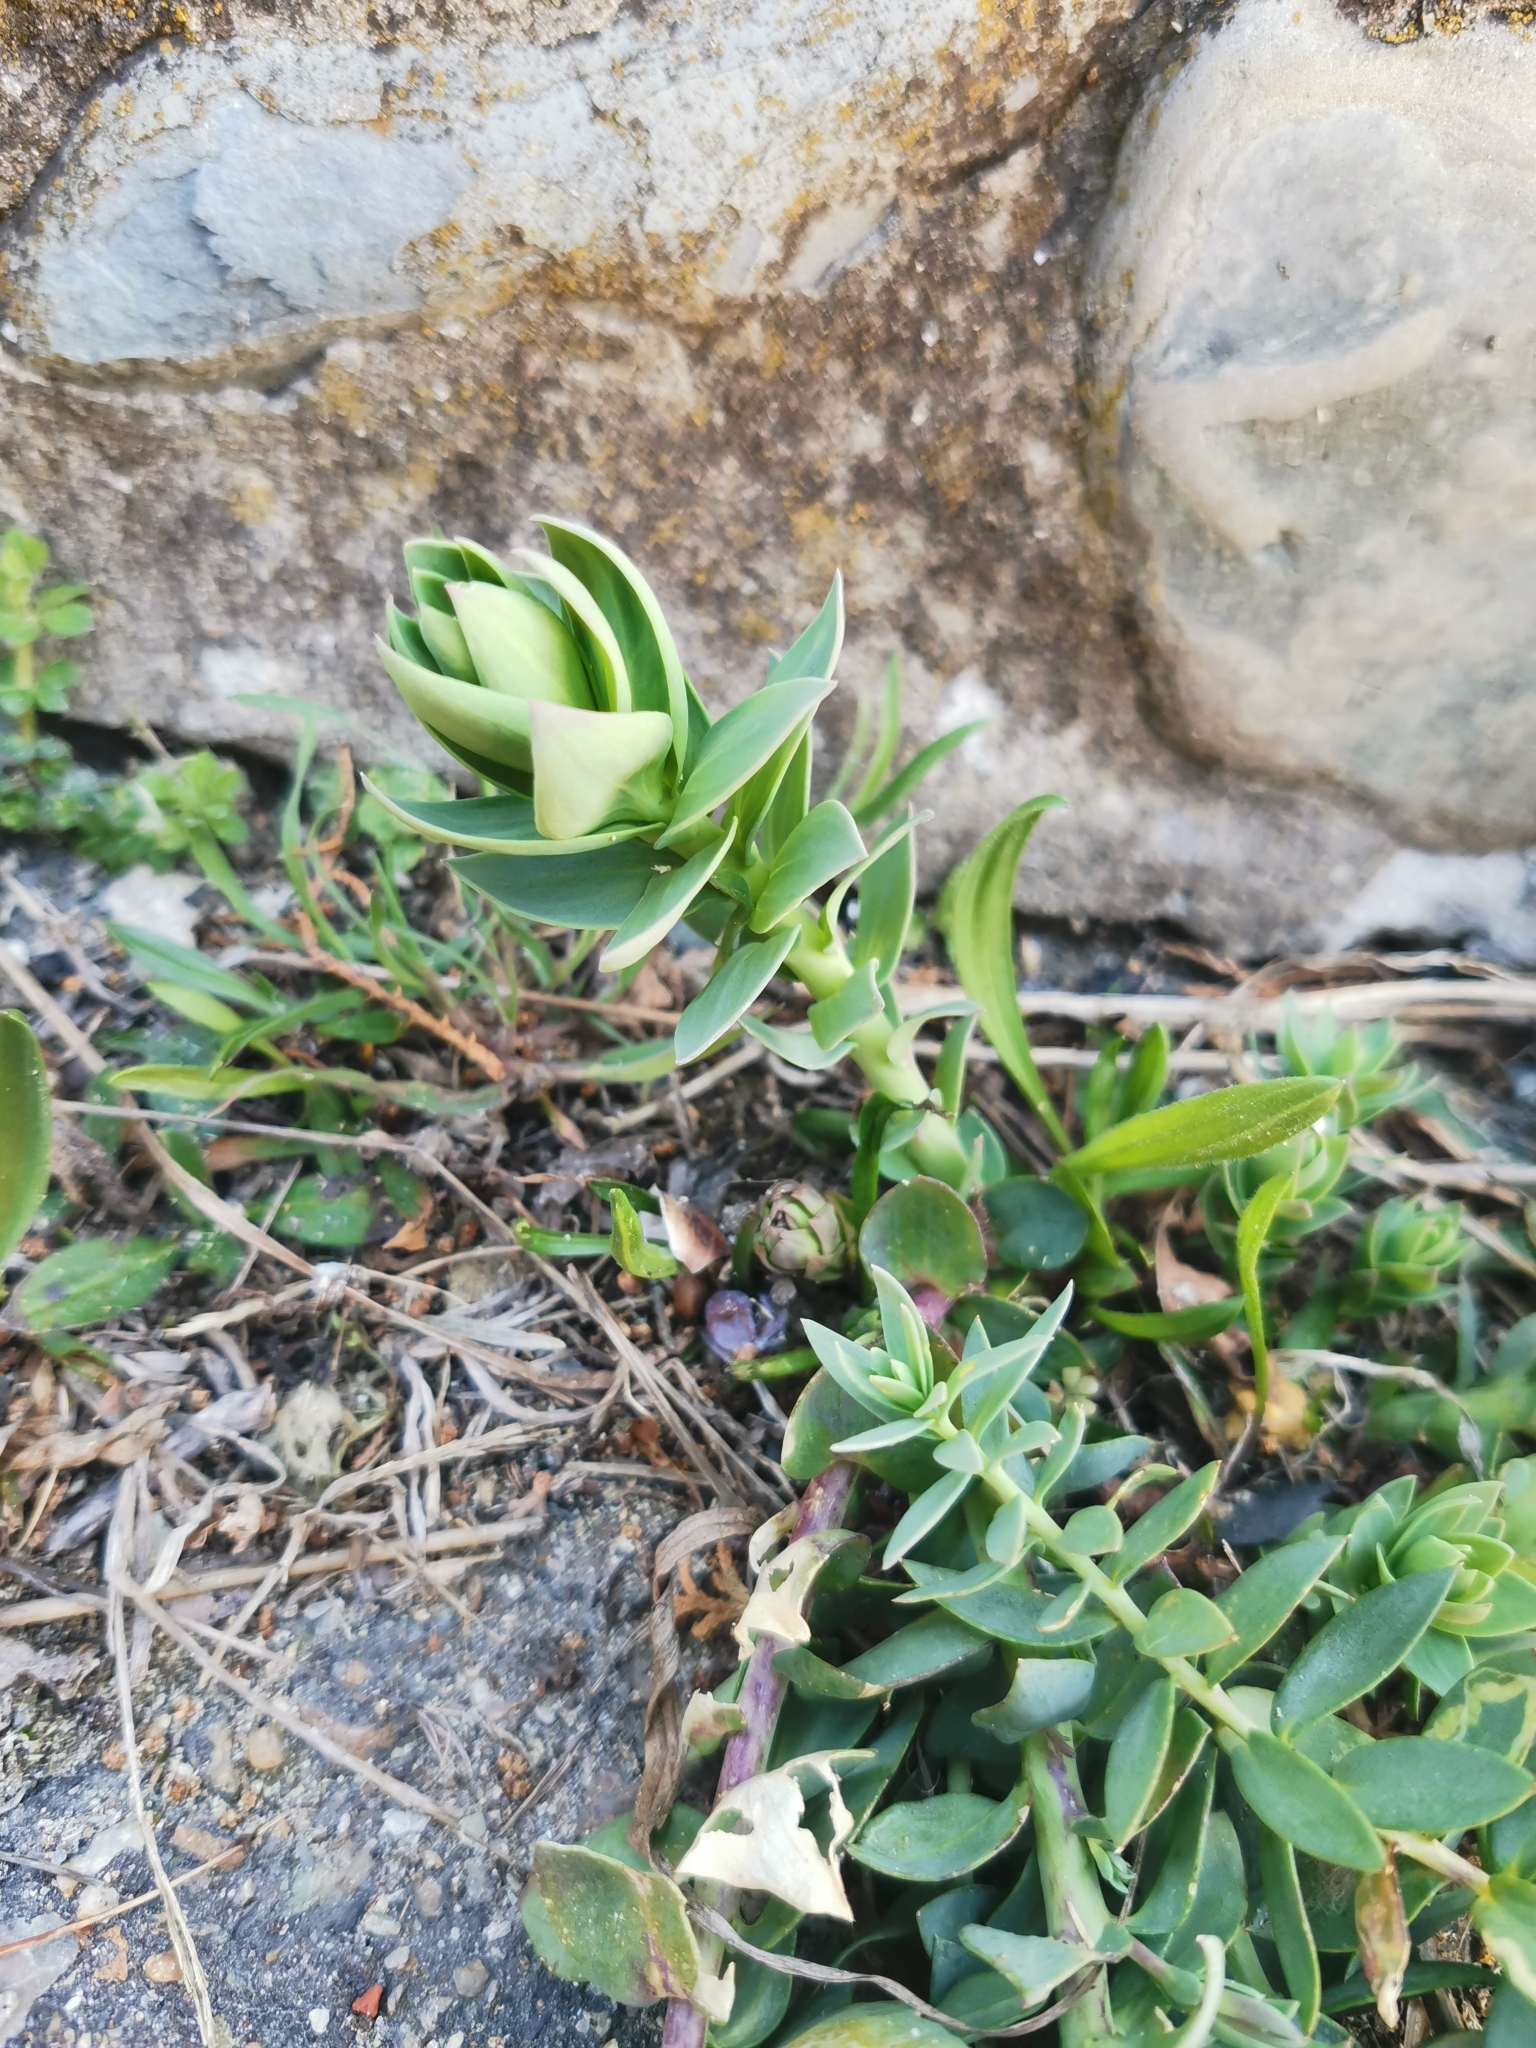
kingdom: Plantae
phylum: Tracheophyta
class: Magnoliopsida
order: Lamiales
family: Plantaginaceae
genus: Linaria
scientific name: Linaria genistifolia
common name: Broomleaf toadflax
